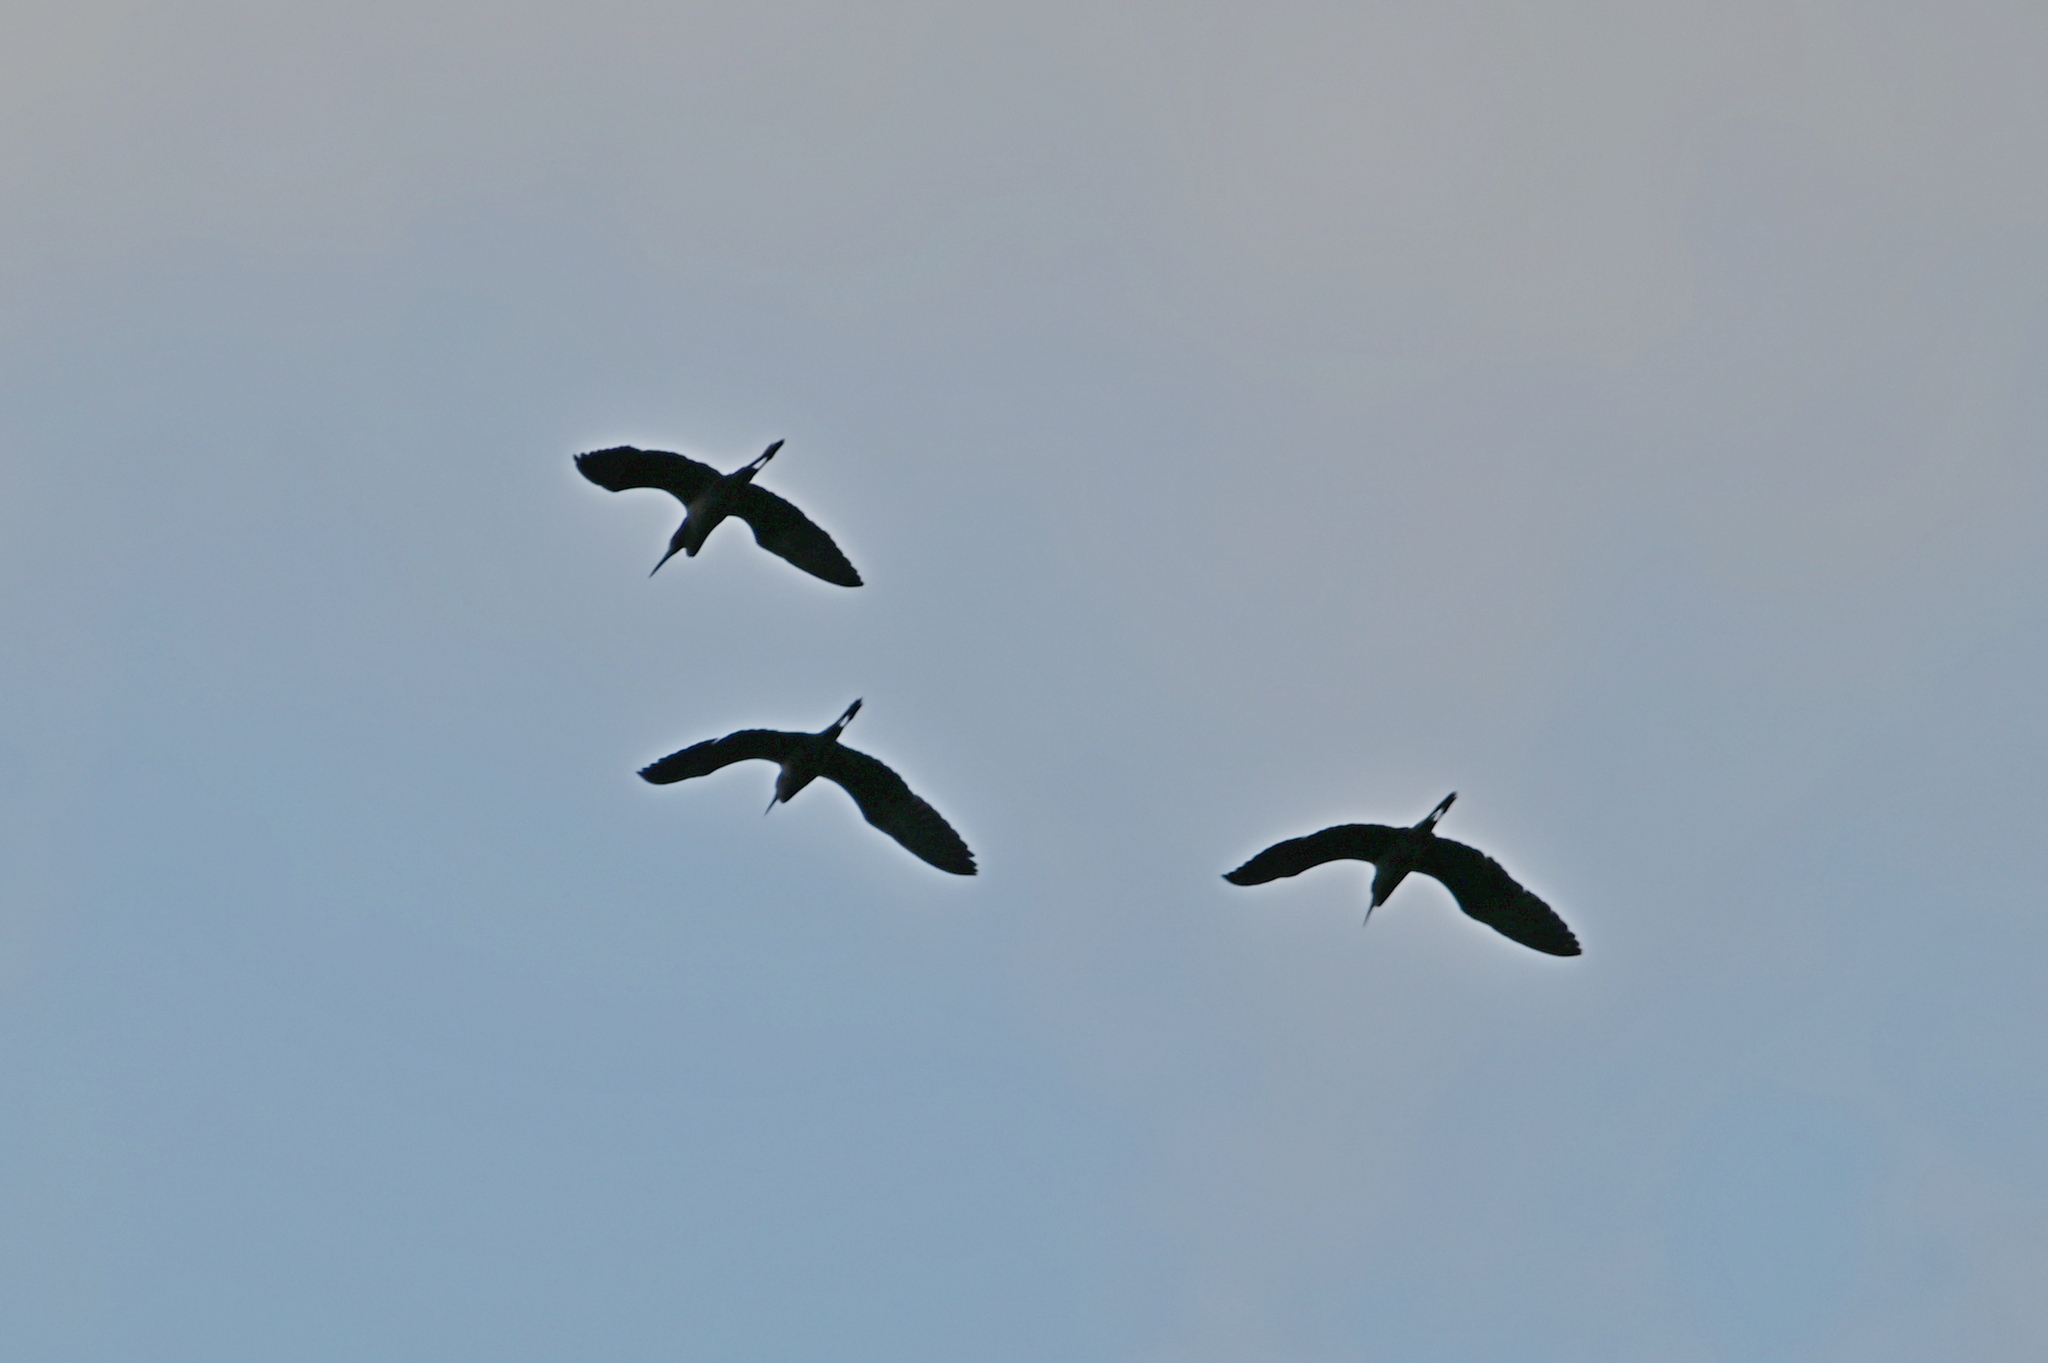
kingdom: Animalia
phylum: Chordata
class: Aves
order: Pelecaniformes
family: Ardeidae
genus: Egretta
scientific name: Egretta caerulea
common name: Little blue heron
